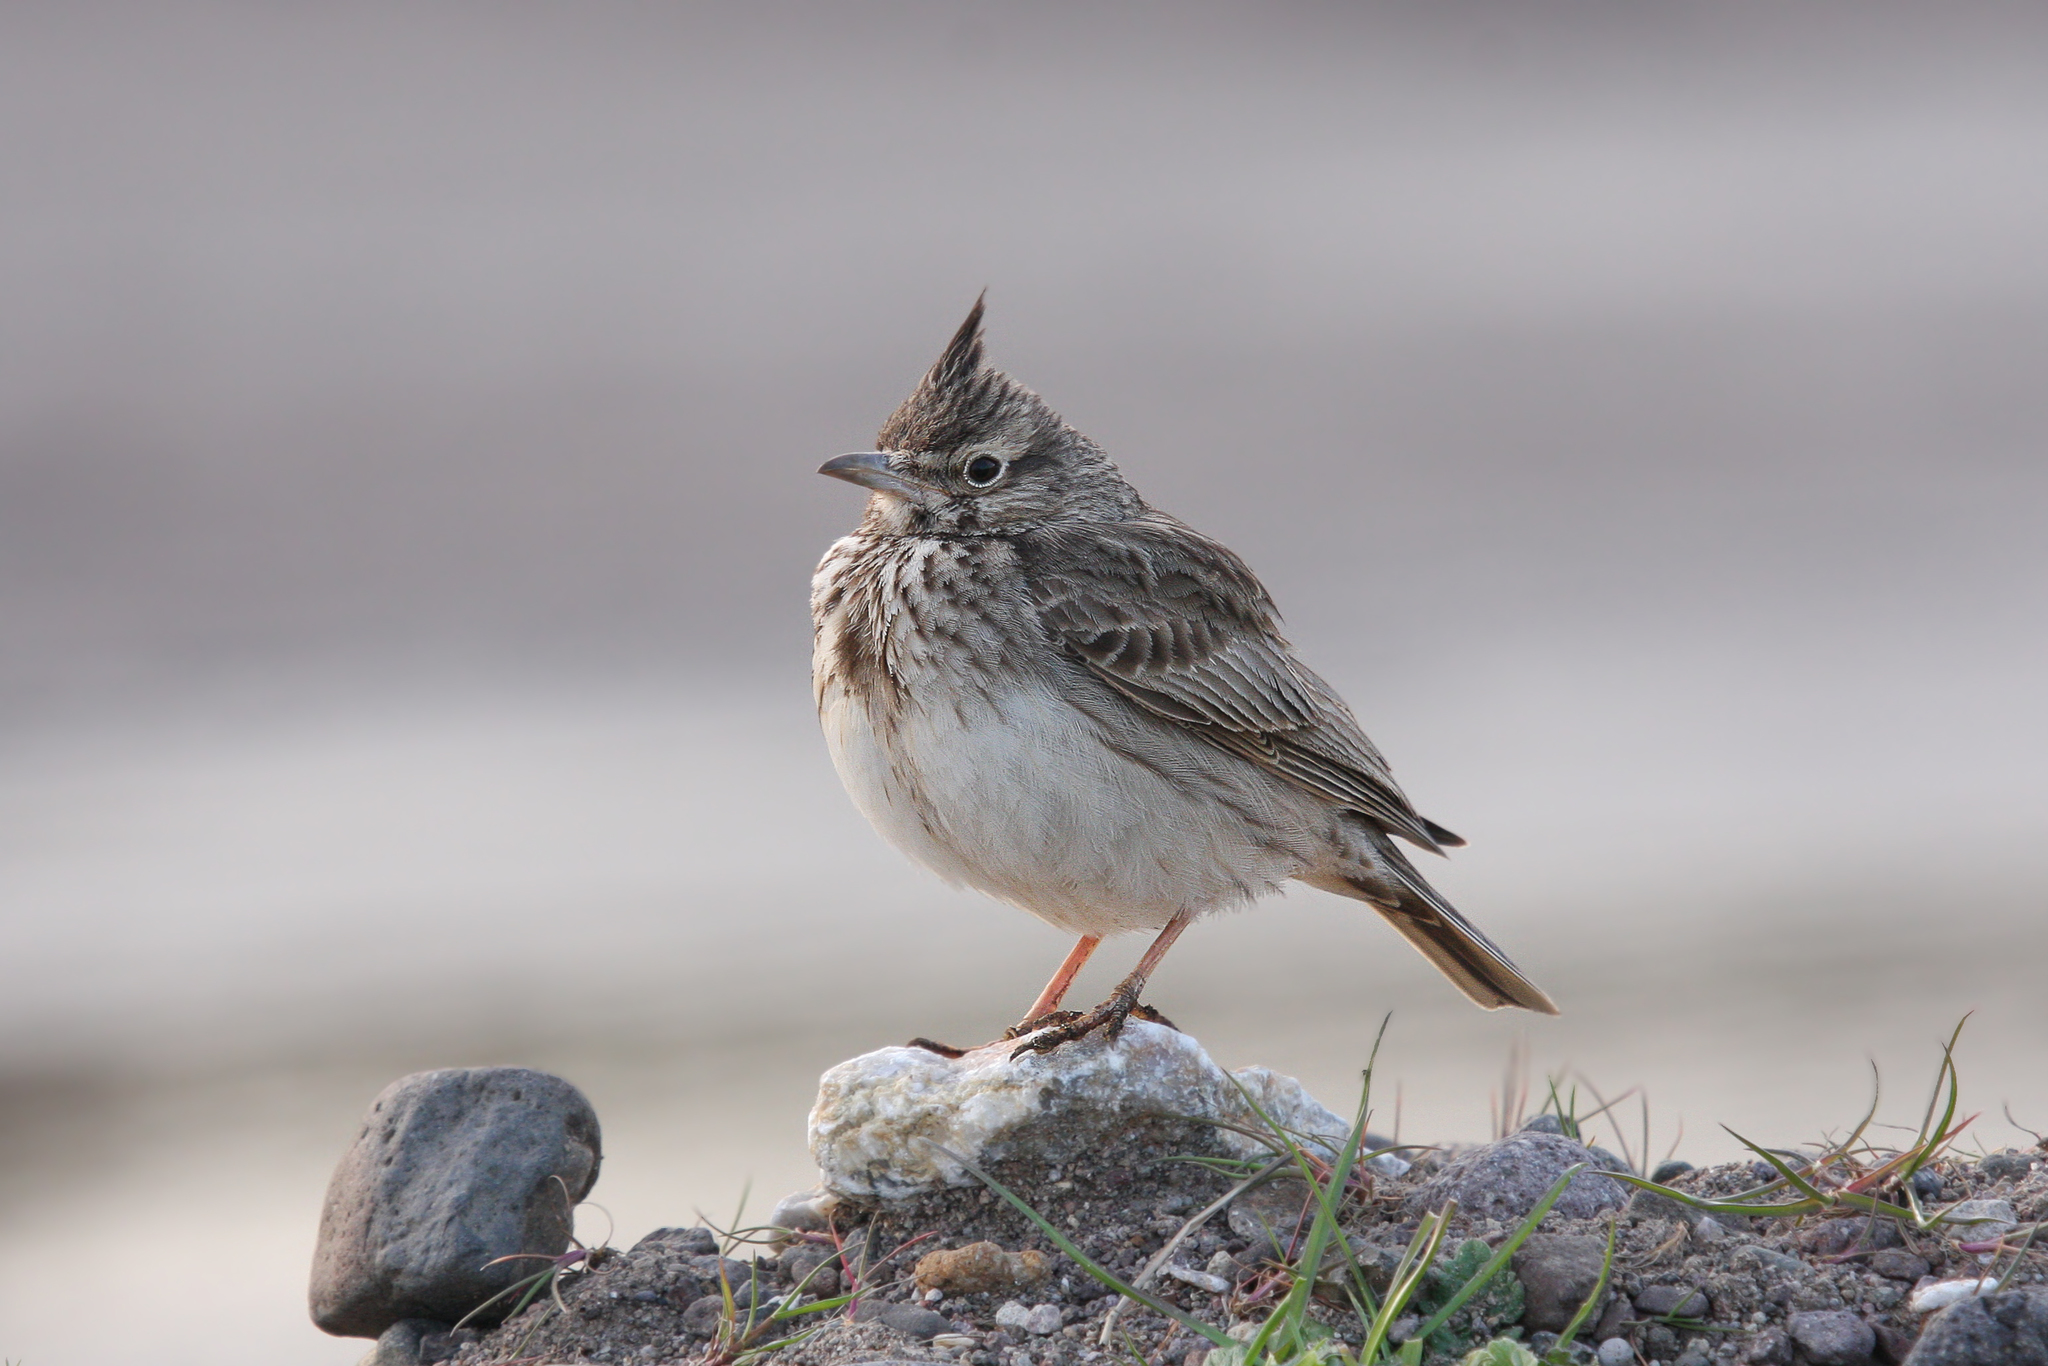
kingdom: Animalia
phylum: Chordata
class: Aves
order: Passeriformes
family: Alaudidae
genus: Galerida
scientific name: Galerida cristata
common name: Crested lark
